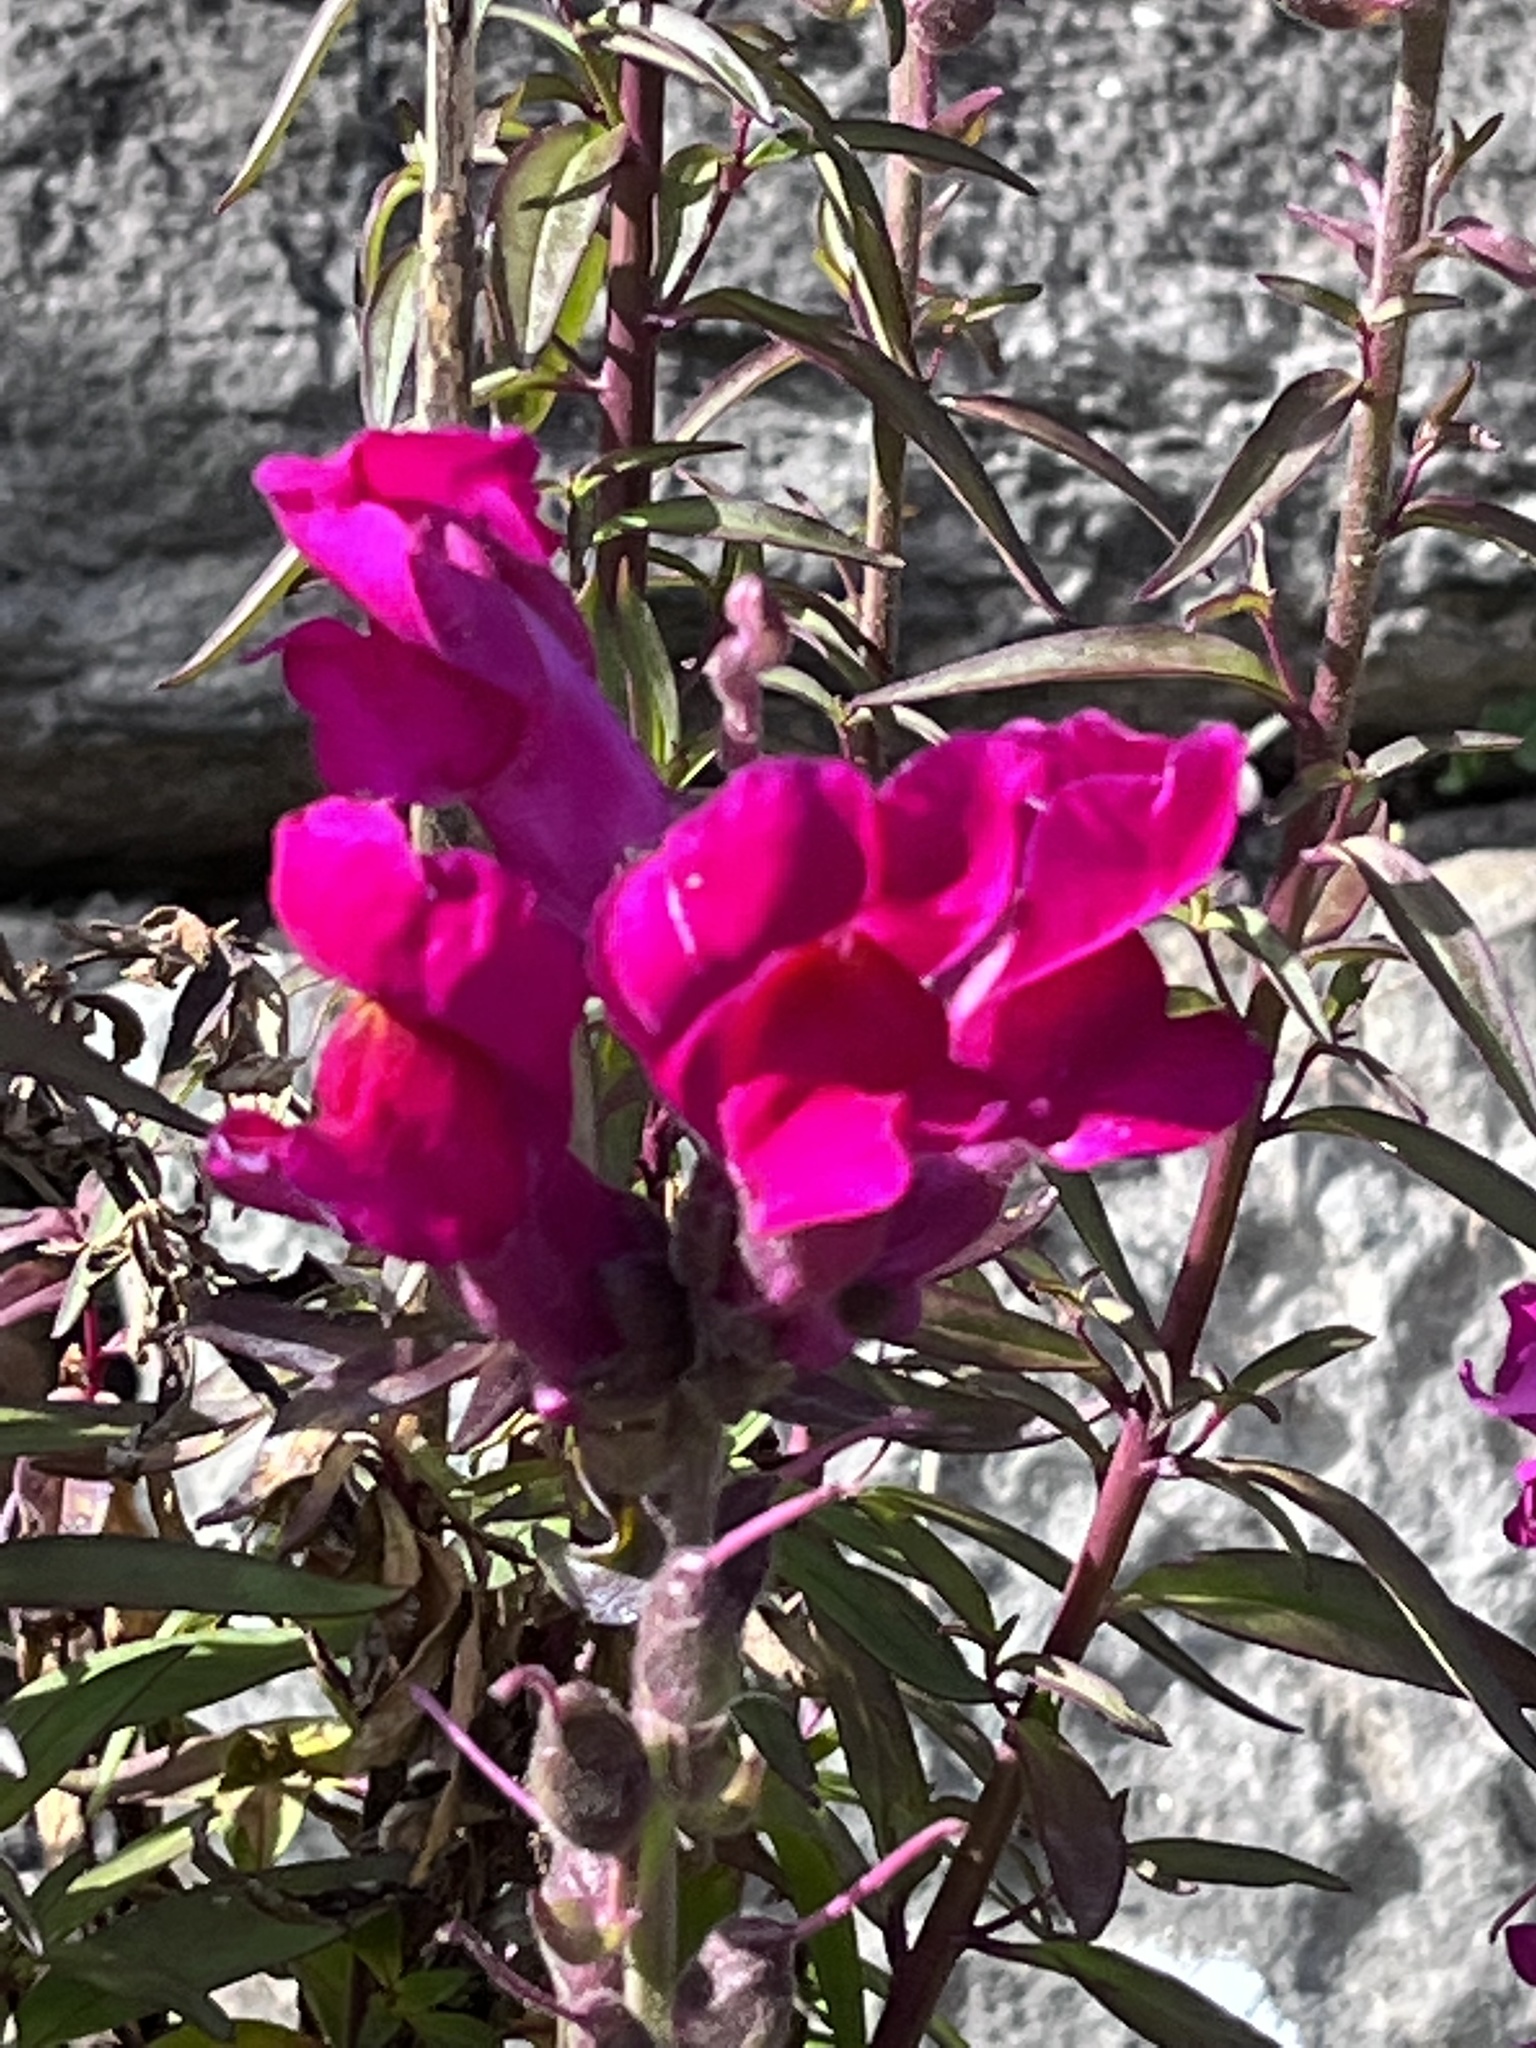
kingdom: Plantae
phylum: Tracheophyta
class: Magnoliopsida
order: Lamiales
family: Plantaginaceae
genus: Antirrhinum
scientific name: Antirrhinum majus
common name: Snapdragon
